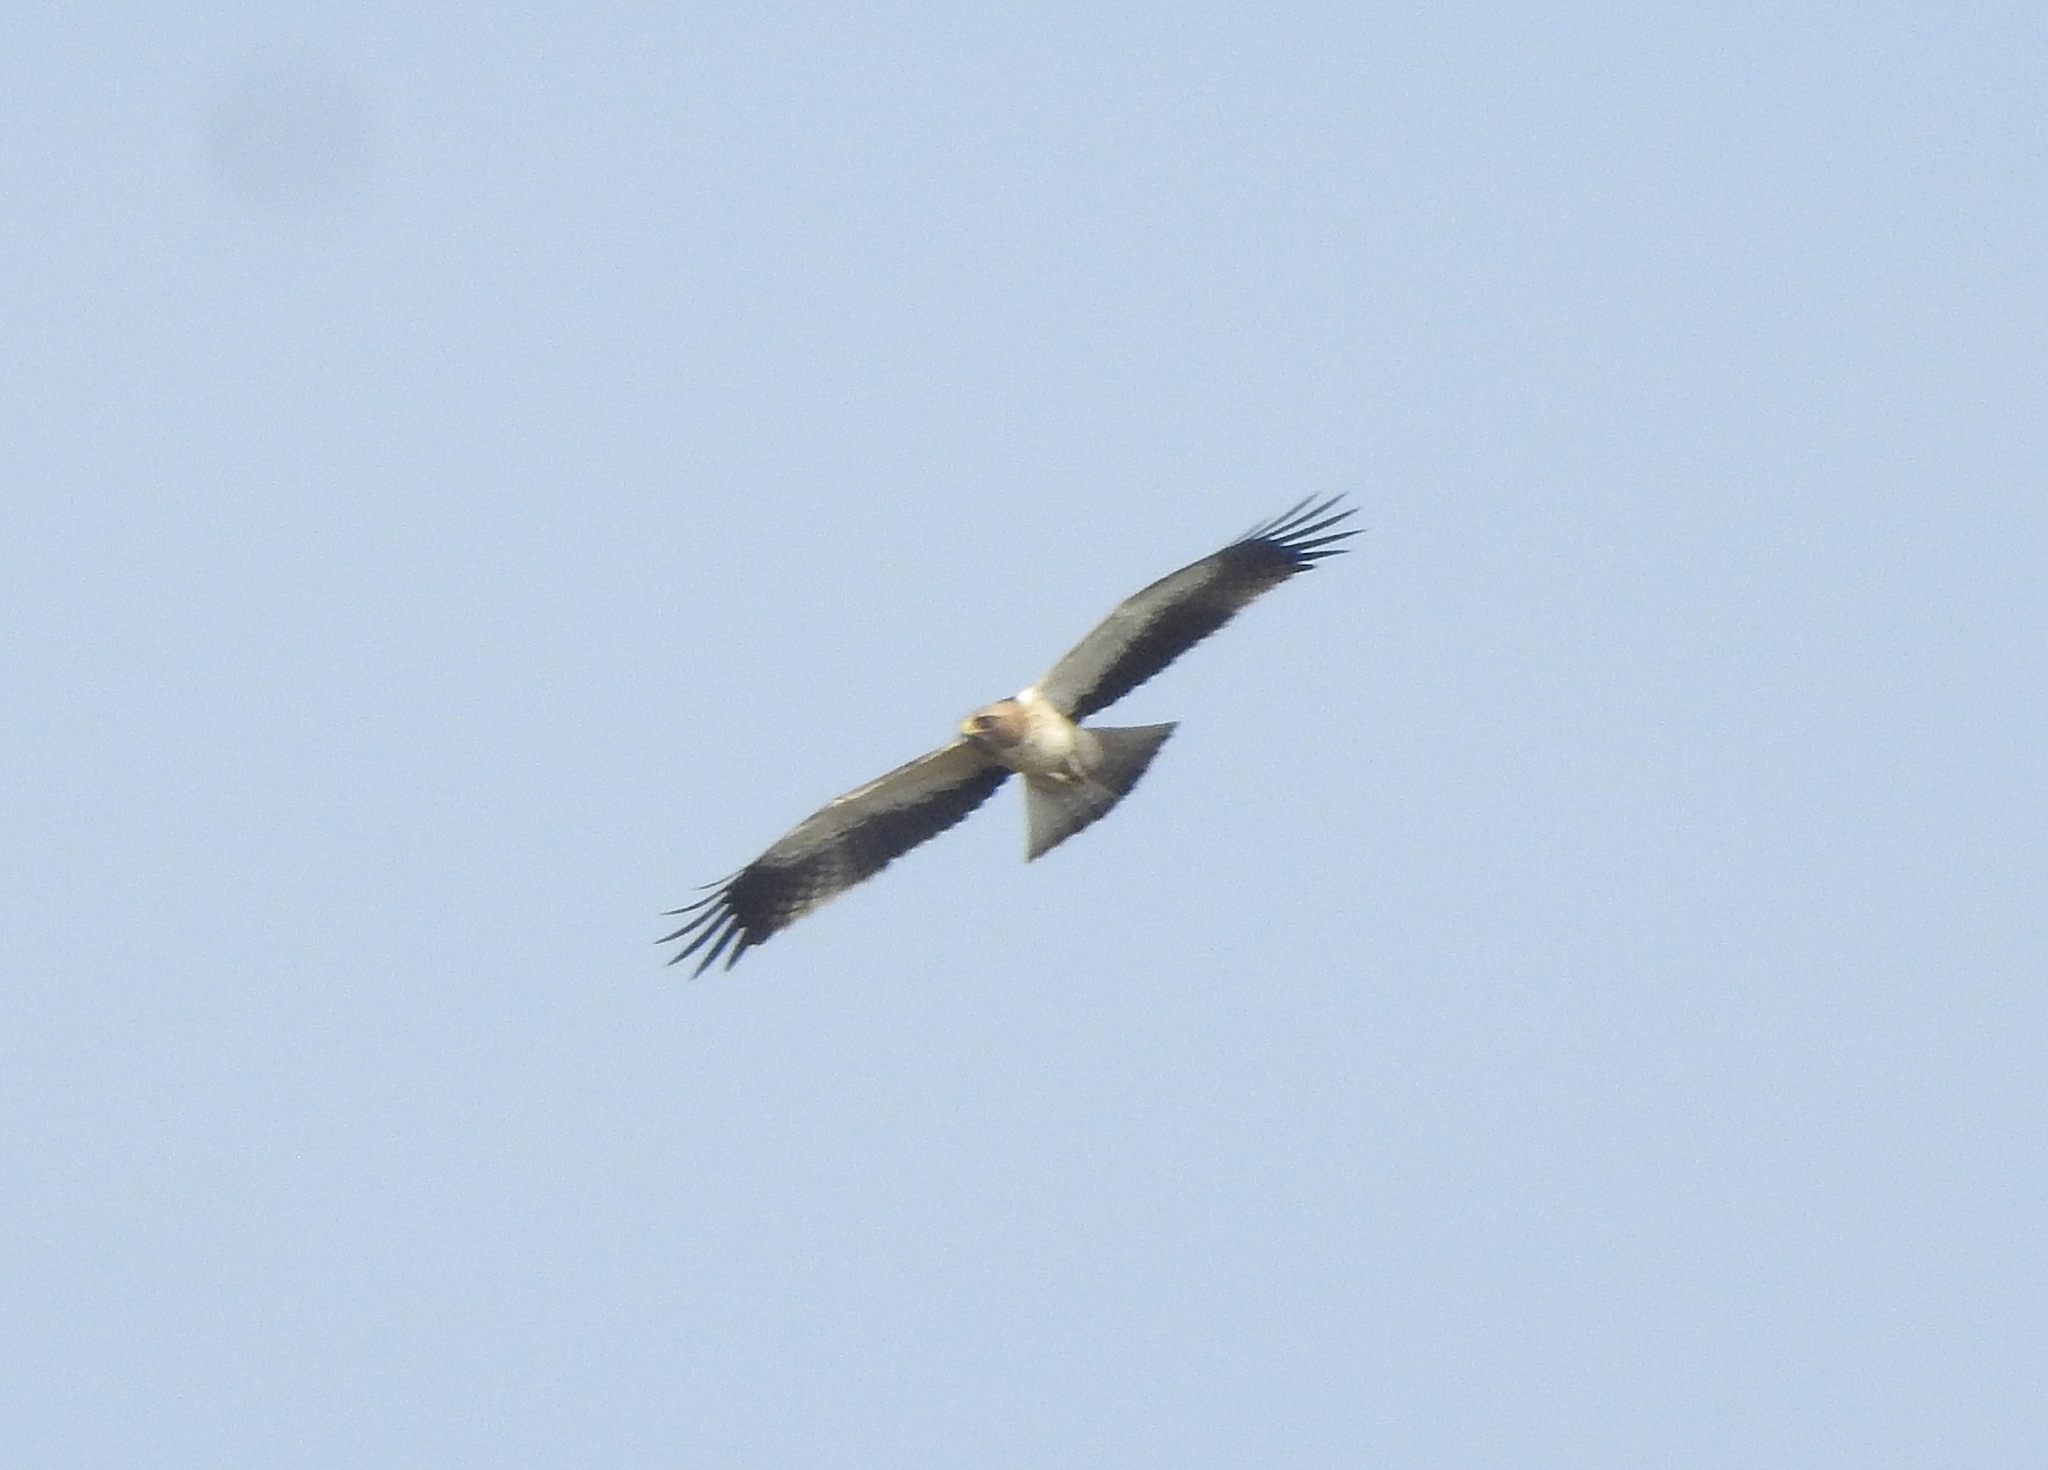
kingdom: Animalia
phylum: Chordata
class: Aves
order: Accipitriformes
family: Accipitridae
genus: Hieraaetus
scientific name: Hieraaetus pennatus
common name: Booted eagle
